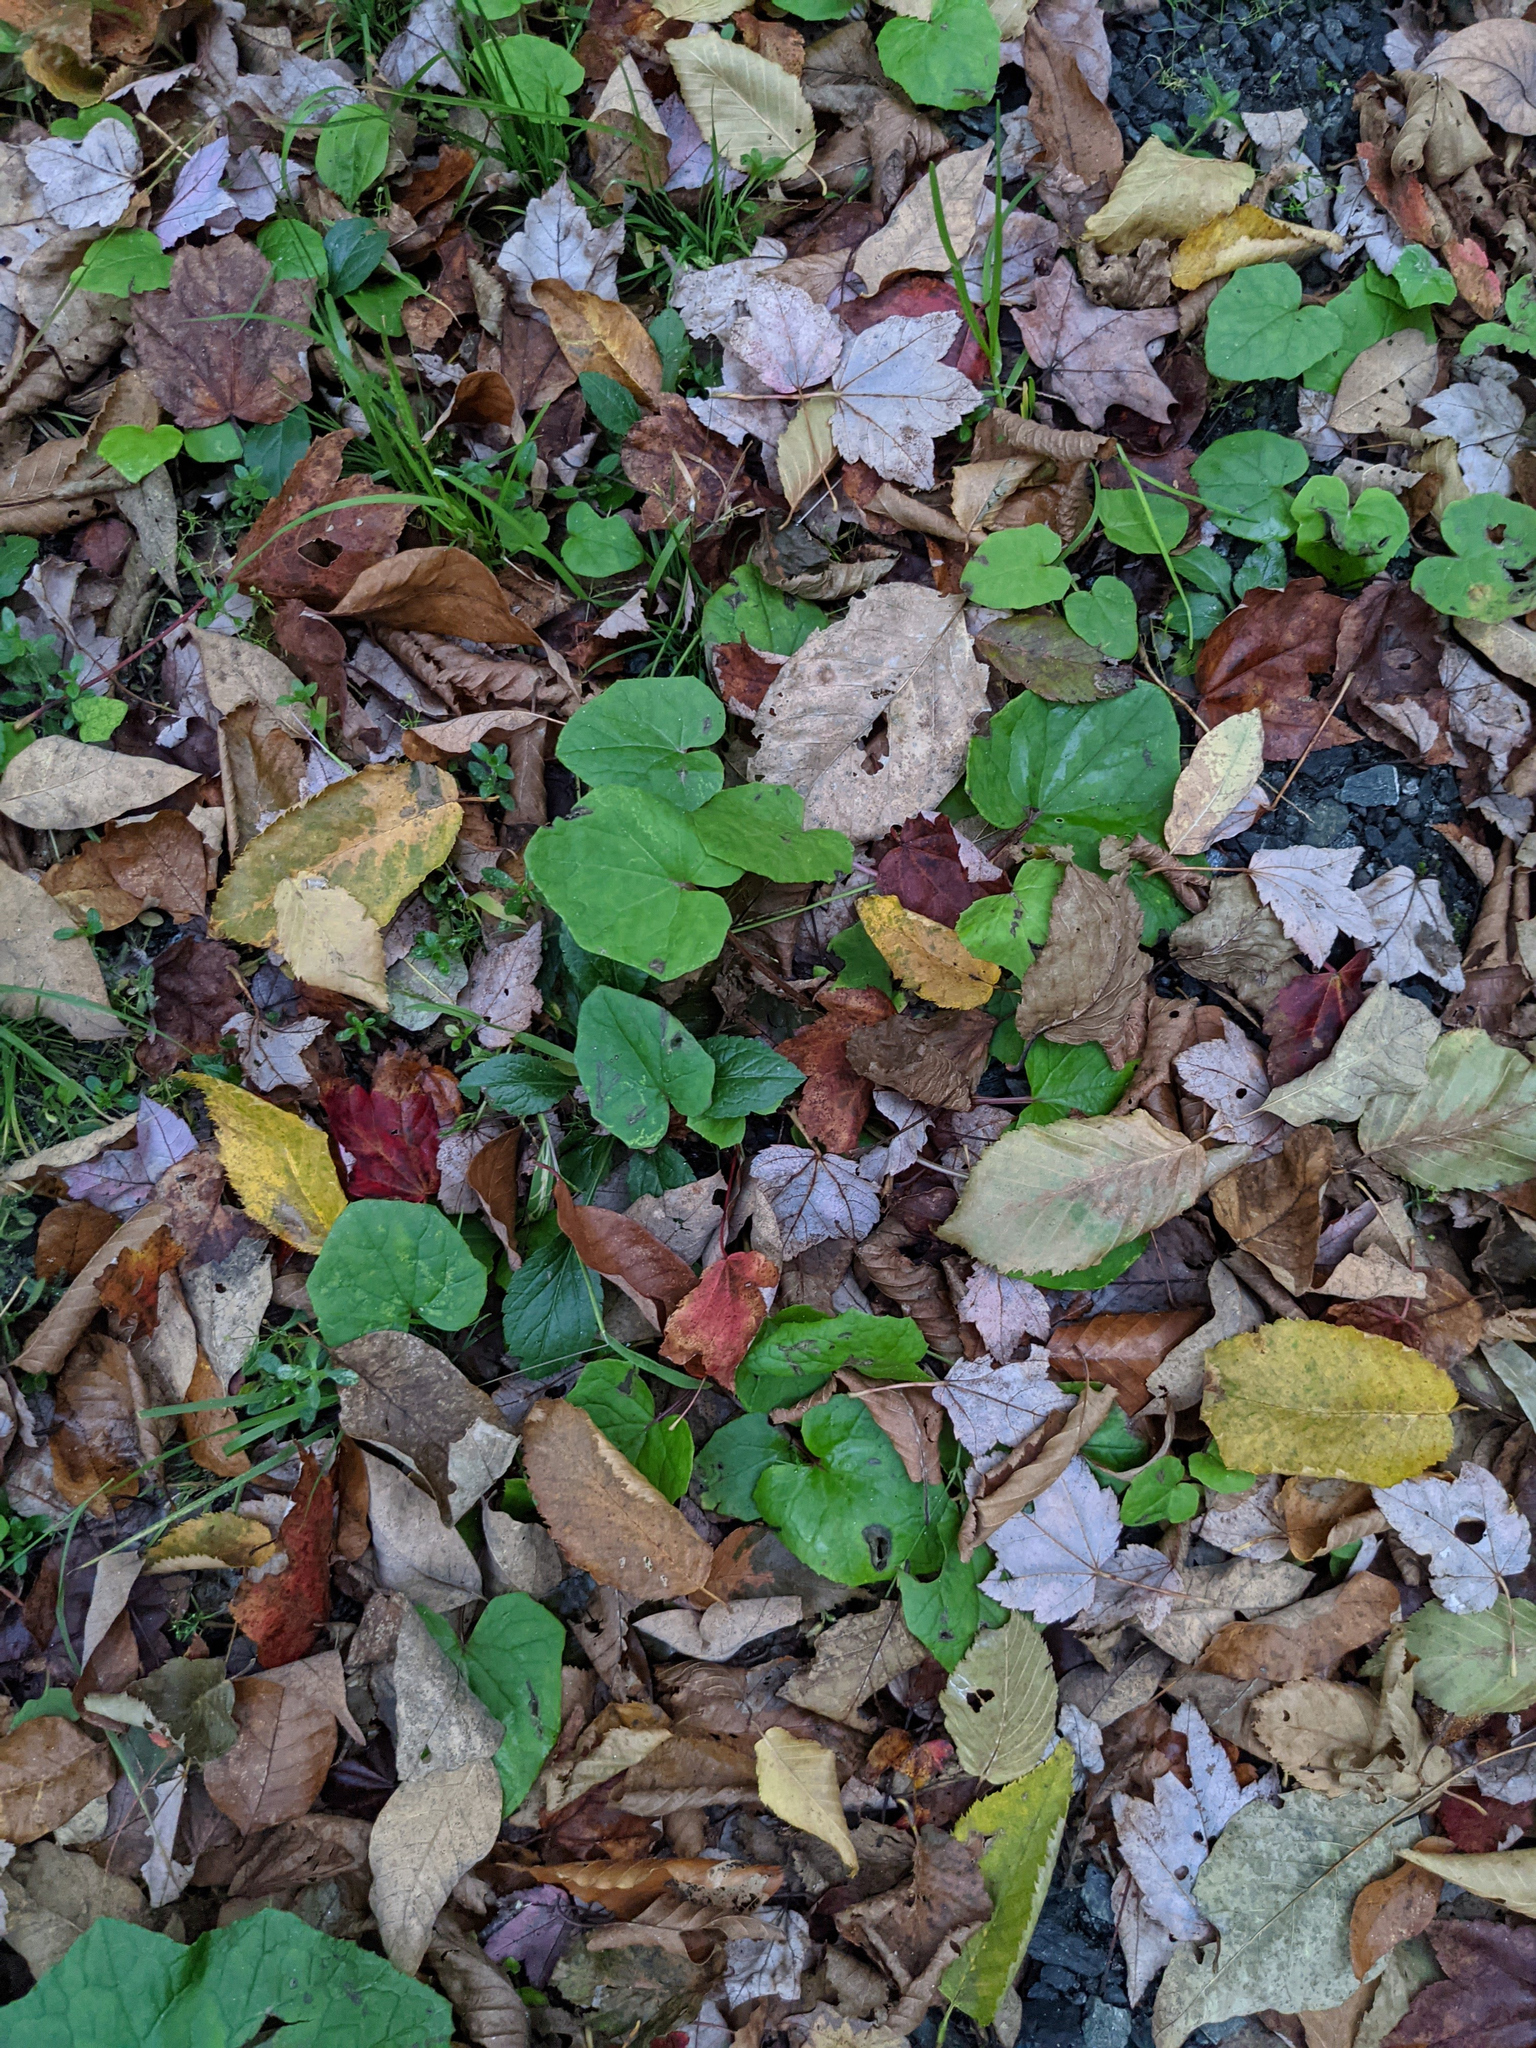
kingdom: Plantae
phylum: Tracheophyta
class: Magnoliopsida
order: Asterales
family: Asteraceae
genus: Tussilago
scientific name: Tussilago farfara
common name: Coltsfoot
